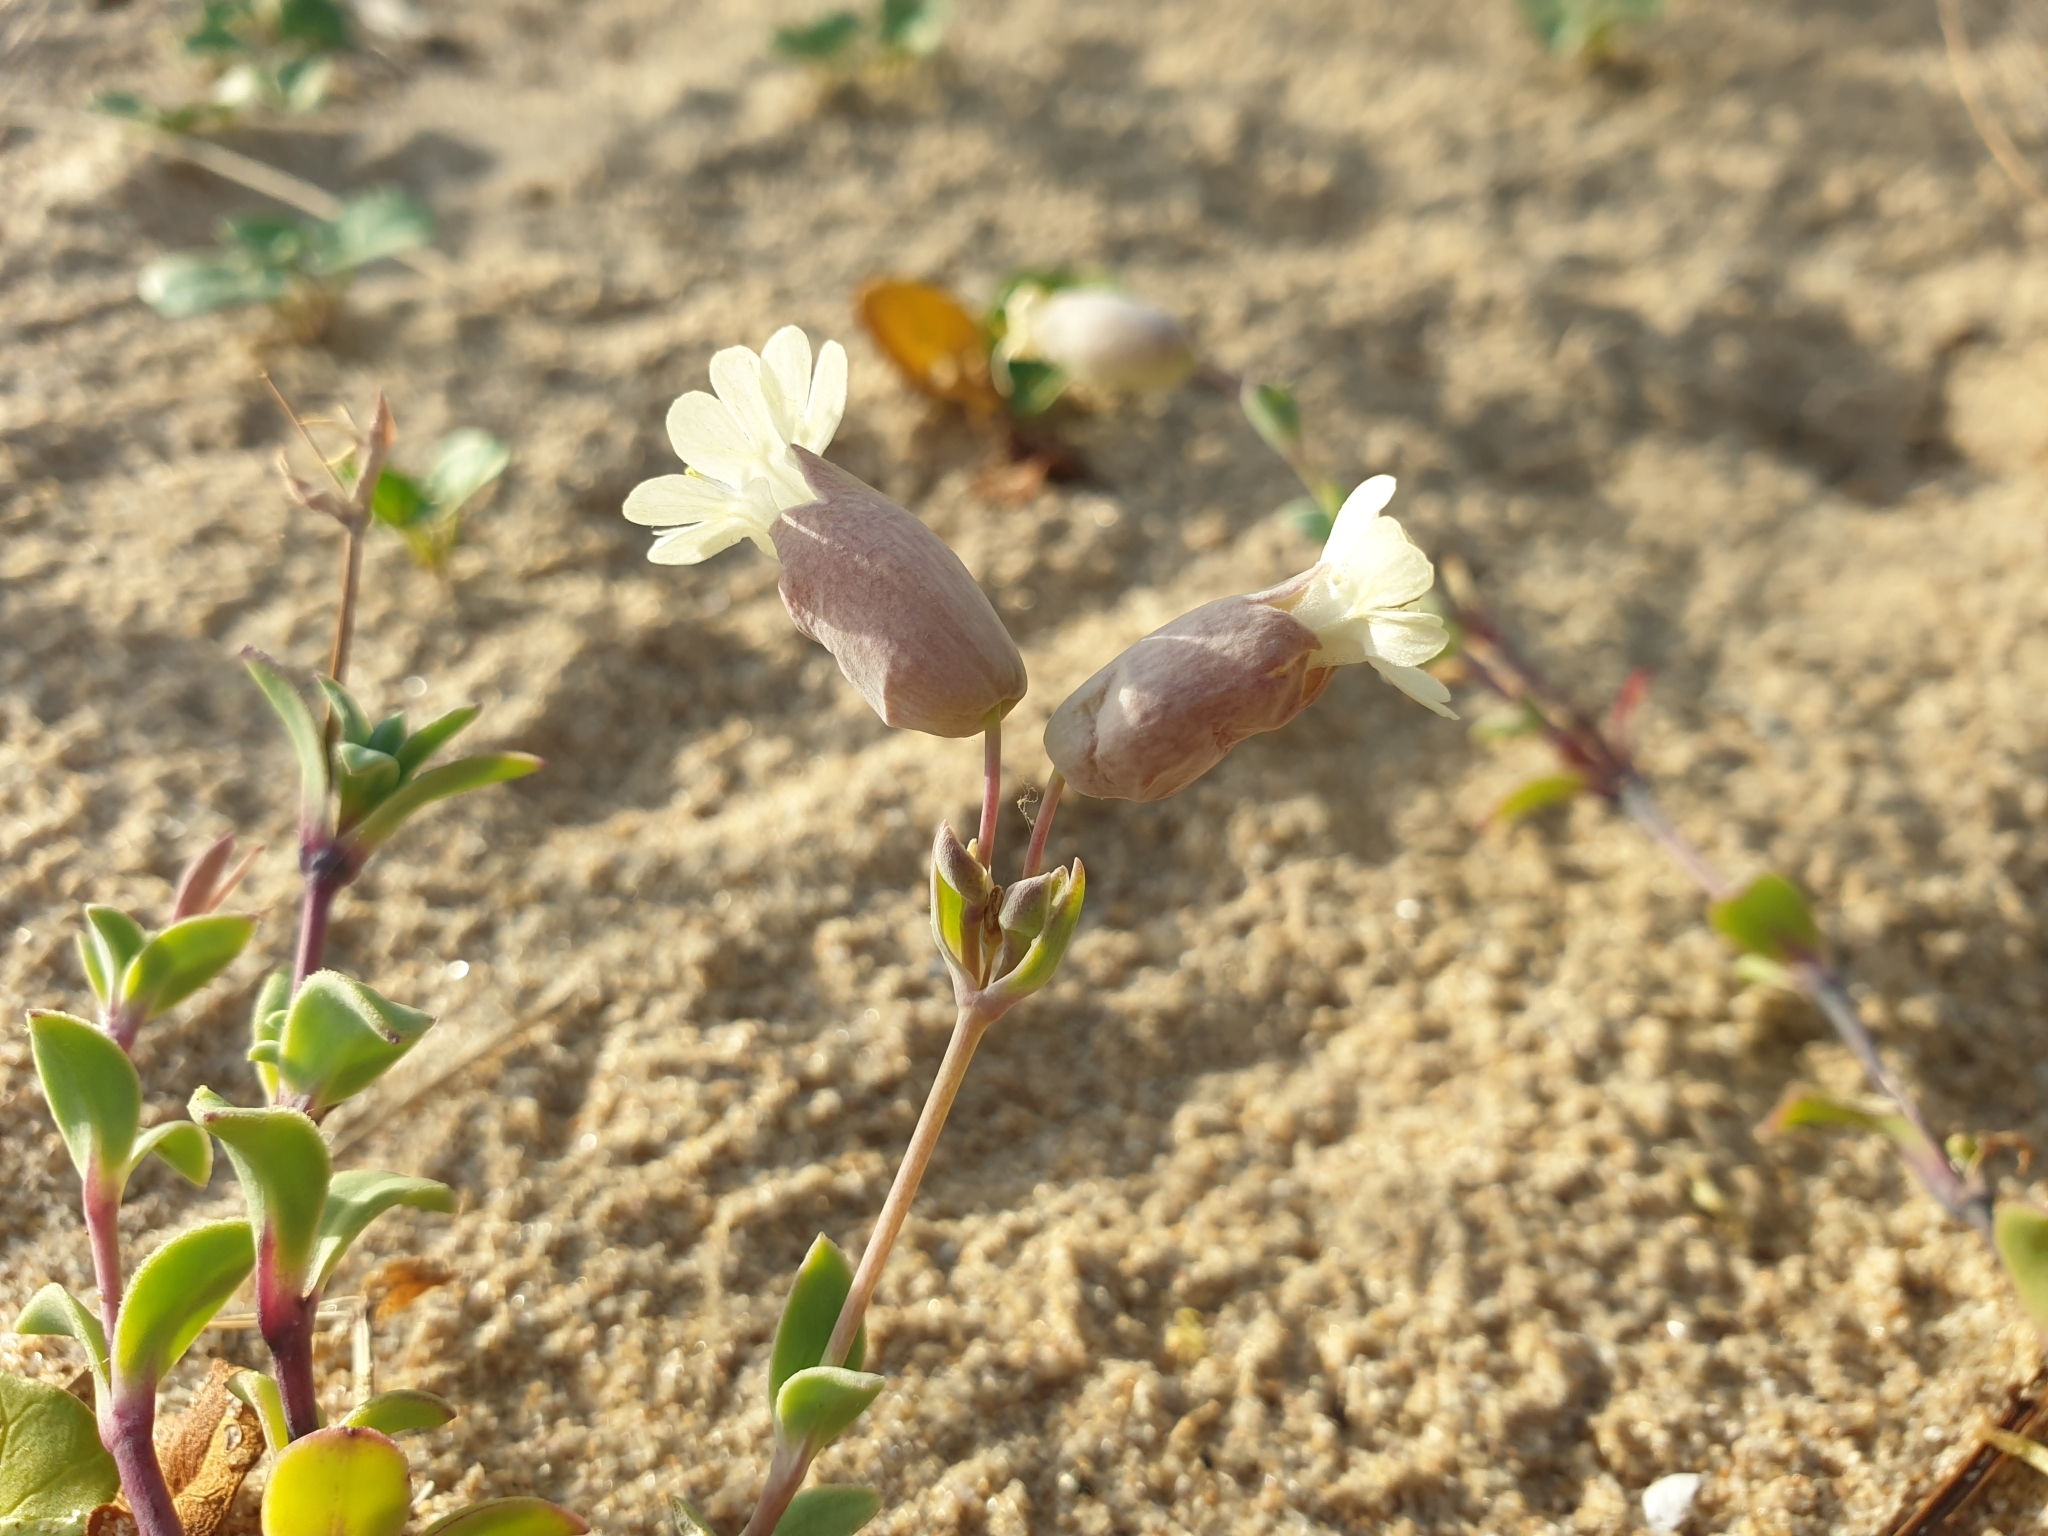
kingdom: Plantae
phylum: Tracheophyta
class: Magnoliopsida
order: Caryophyllales
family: Caryophyllaceae
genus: Silene
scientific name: Silene uniflora
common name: Sea campion
